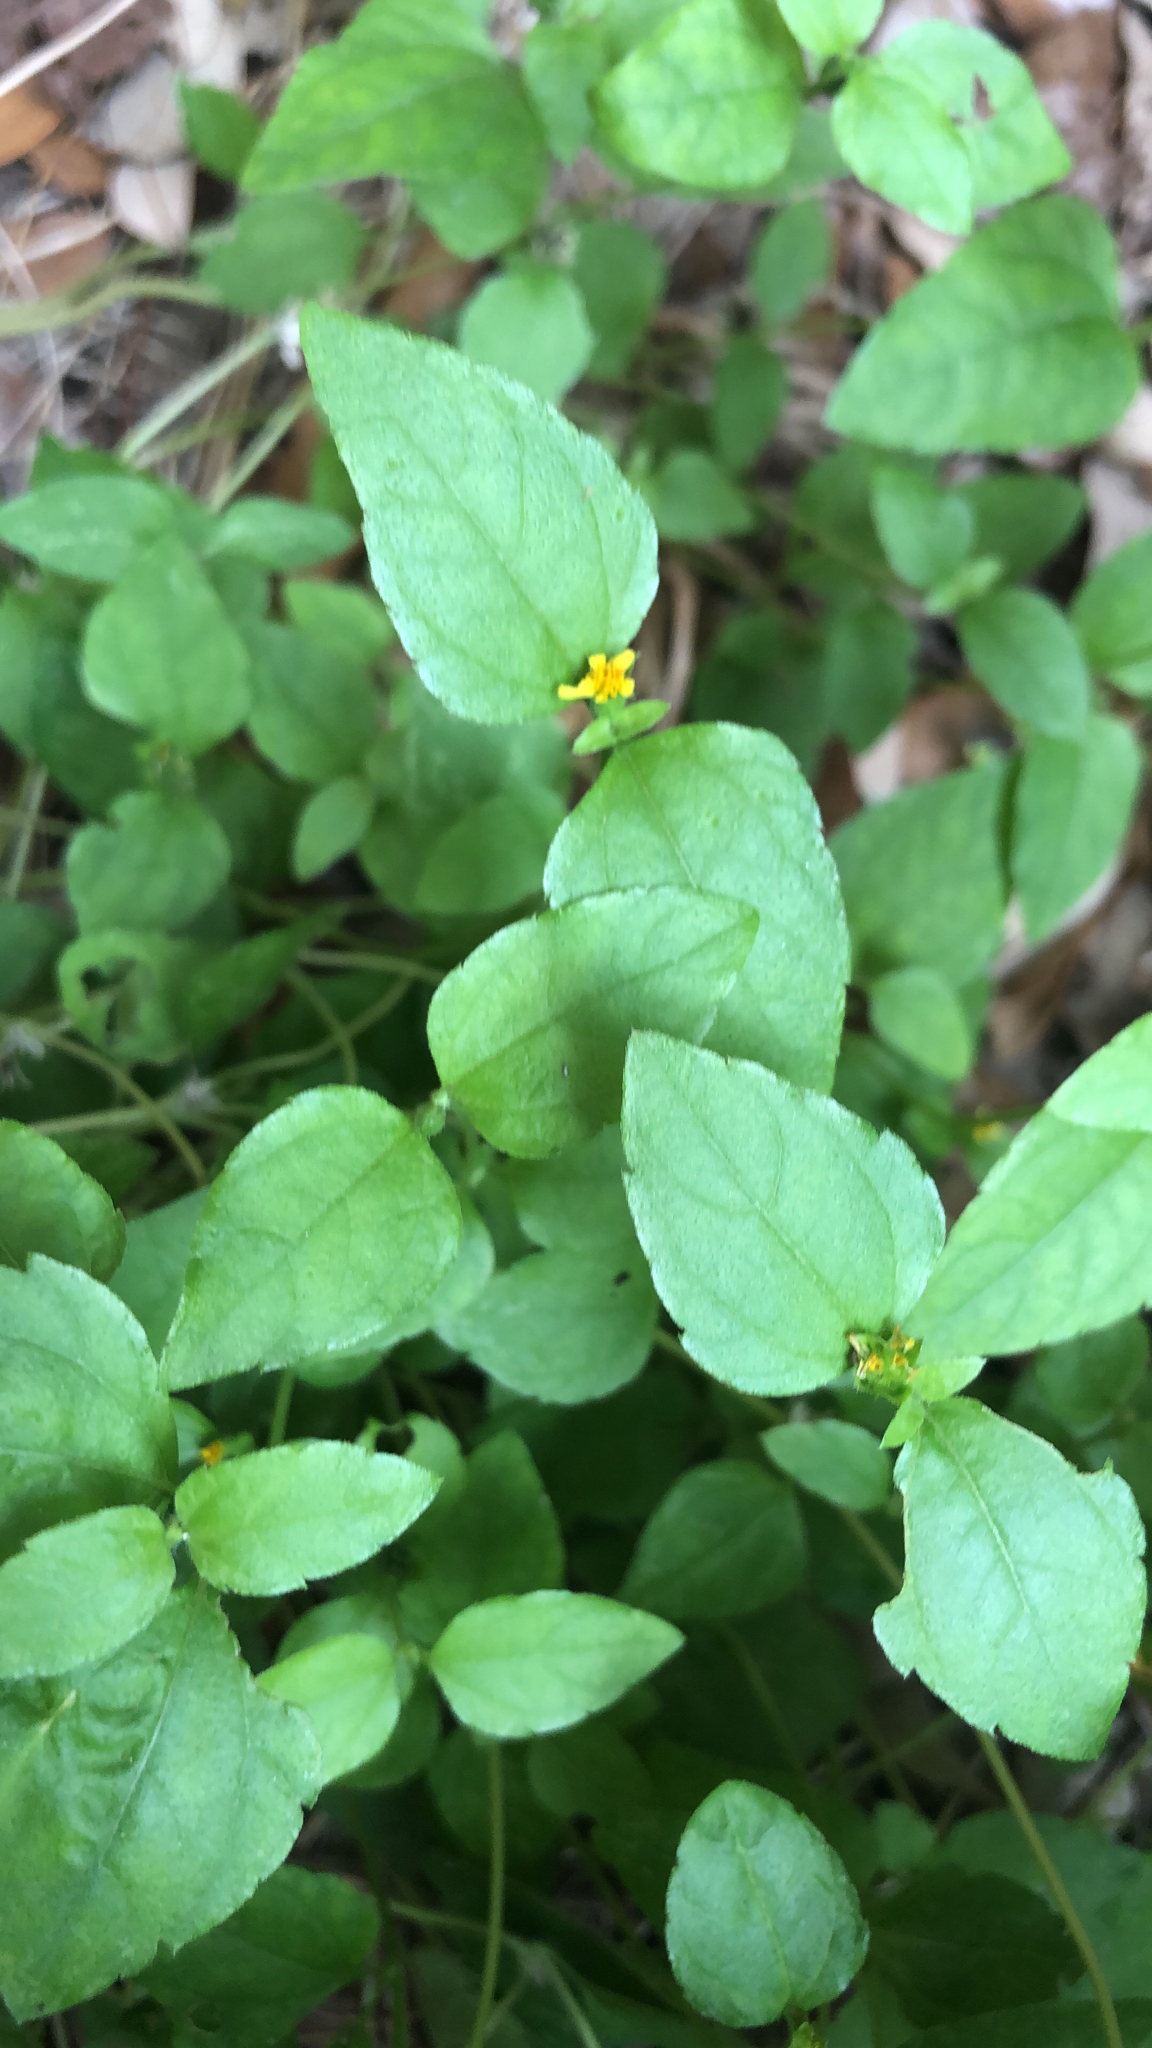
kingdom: Plantae
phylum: Tracheophyta
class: Magnoliopsida
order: Asterales
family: Asteraceae
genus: Calyptocarpus
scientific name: Calyptocarpus vialis
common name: Straggler daisy
